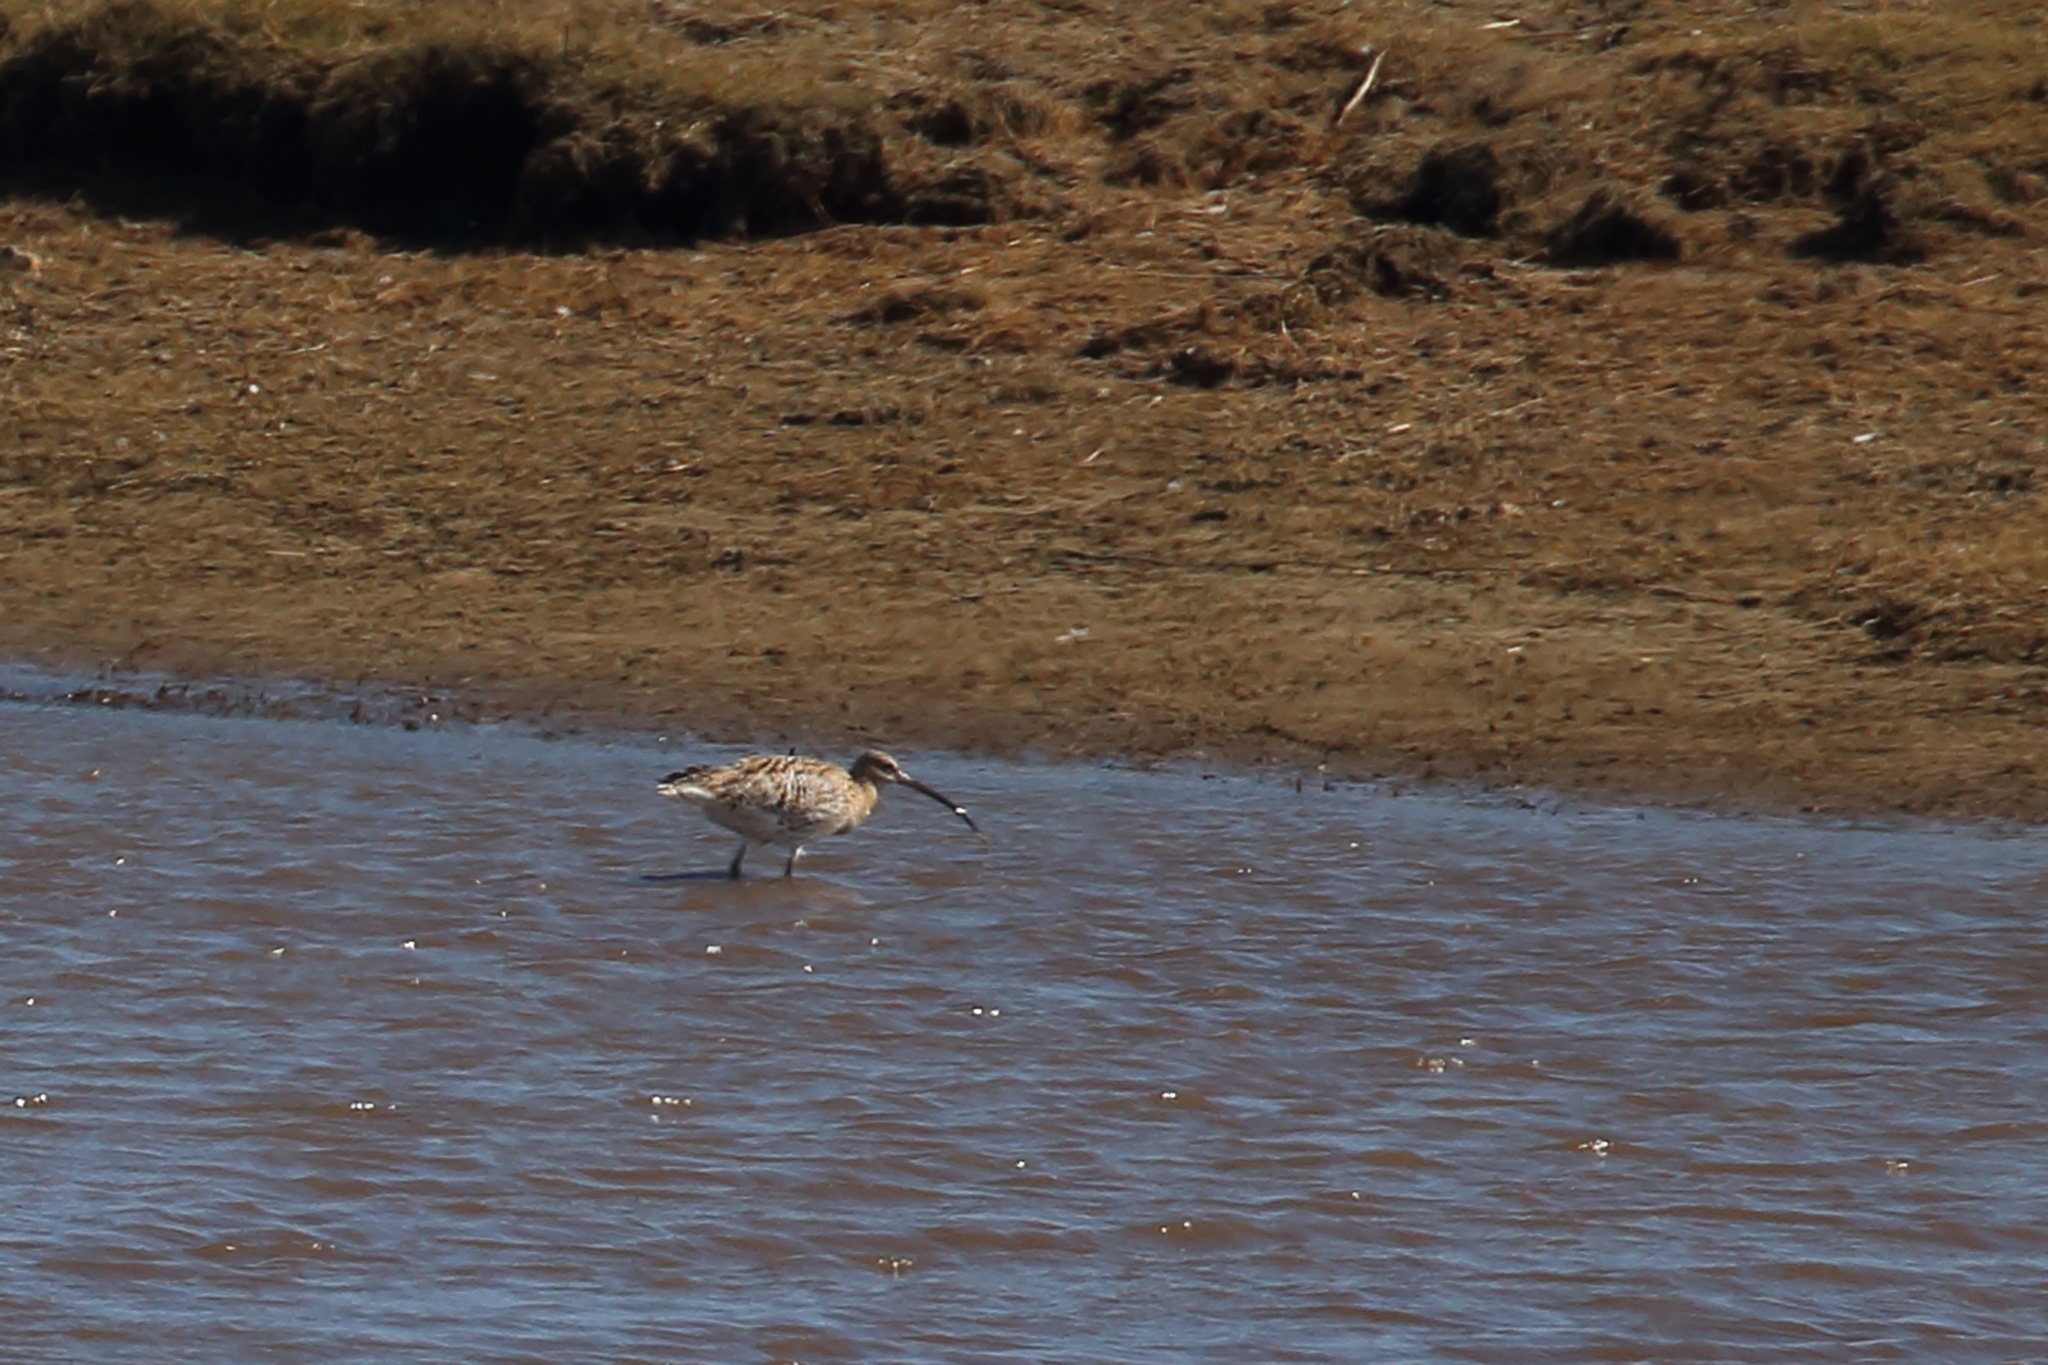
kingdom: Animalia
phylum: Chordata
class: Aves
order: Charadriiformes
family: Scolopacidae
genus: Numenius
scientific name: Numenius arquata
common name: Eurasian curlew
